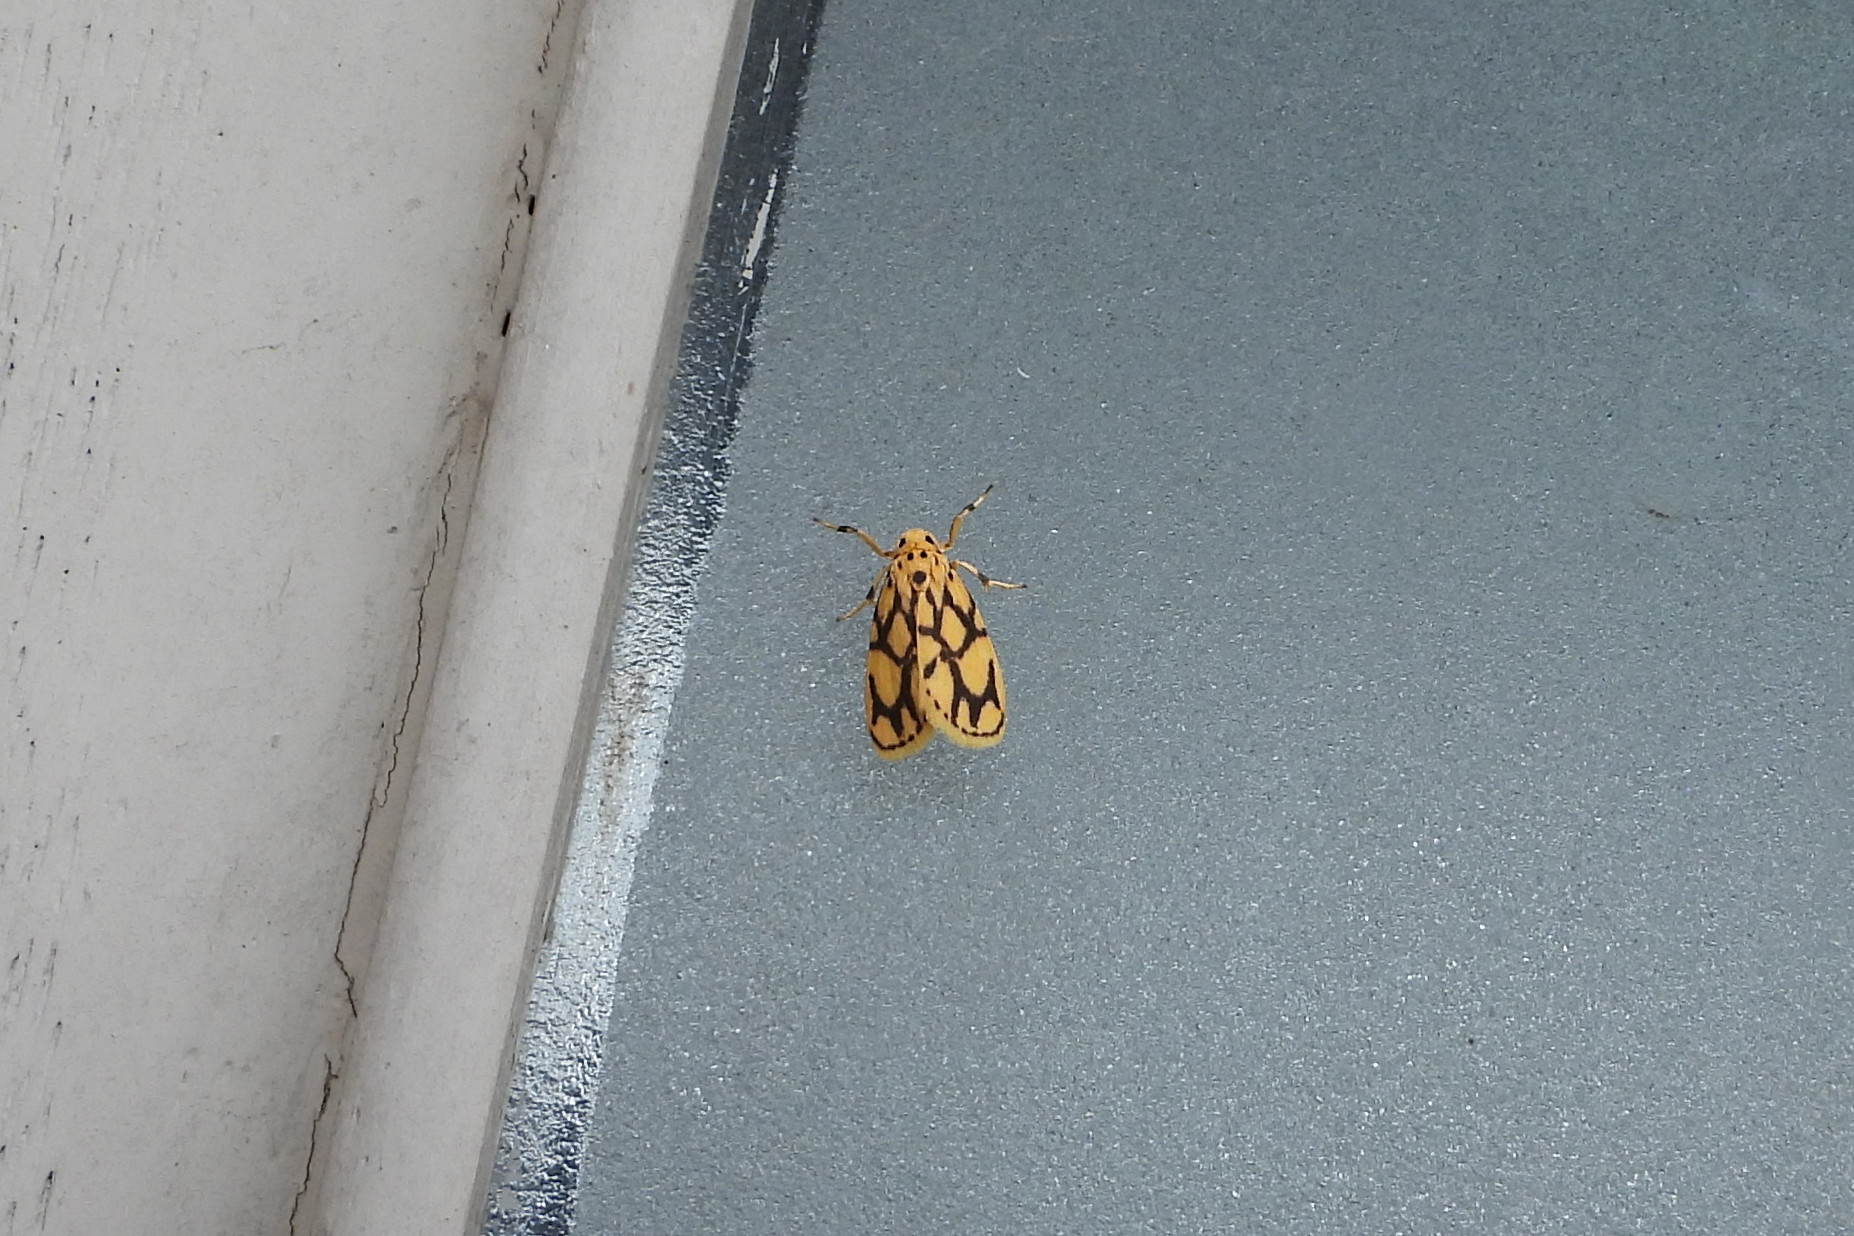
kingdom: Animalia
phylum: Arthropoda
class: Insecta
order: Lepidoptera
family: Erebidae
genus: Miltochrista
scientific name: Miltochrista terminospota
